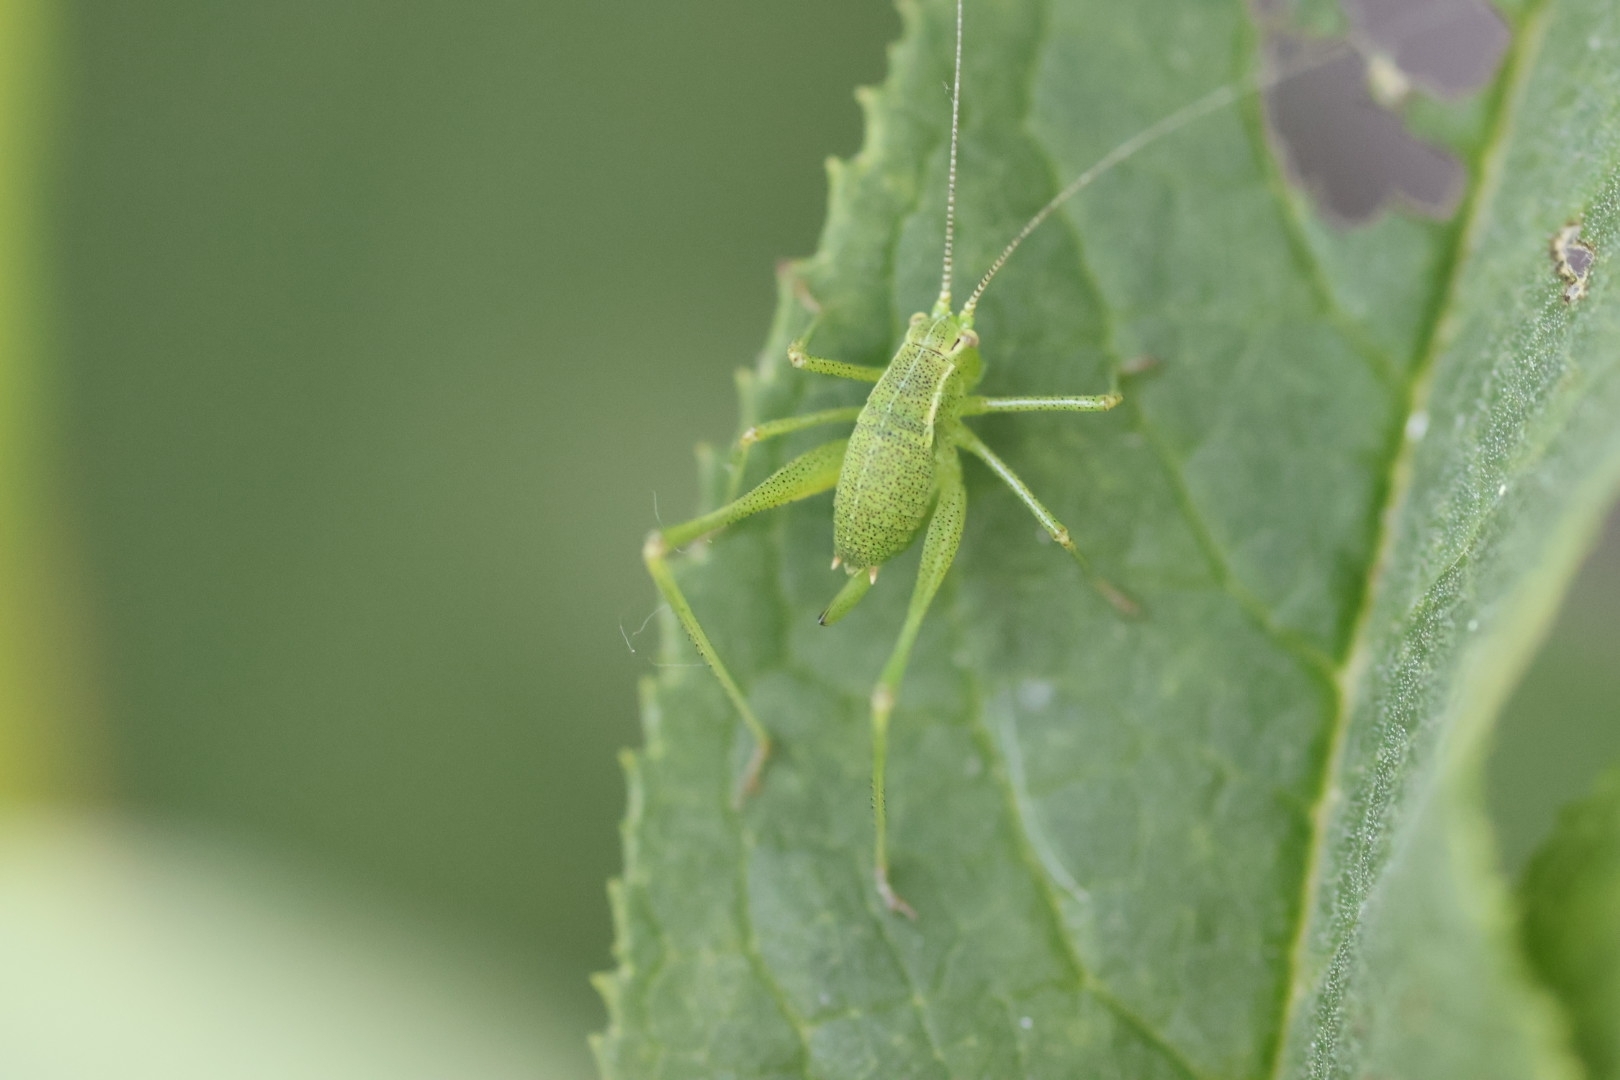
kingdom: Animalia
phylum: Arthropoda
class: Insecta
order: Orthoptera
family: Tettigoniidae
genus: Leptophyes
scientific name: Leptophyes punctatissima
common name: Speckled bush-cricket
